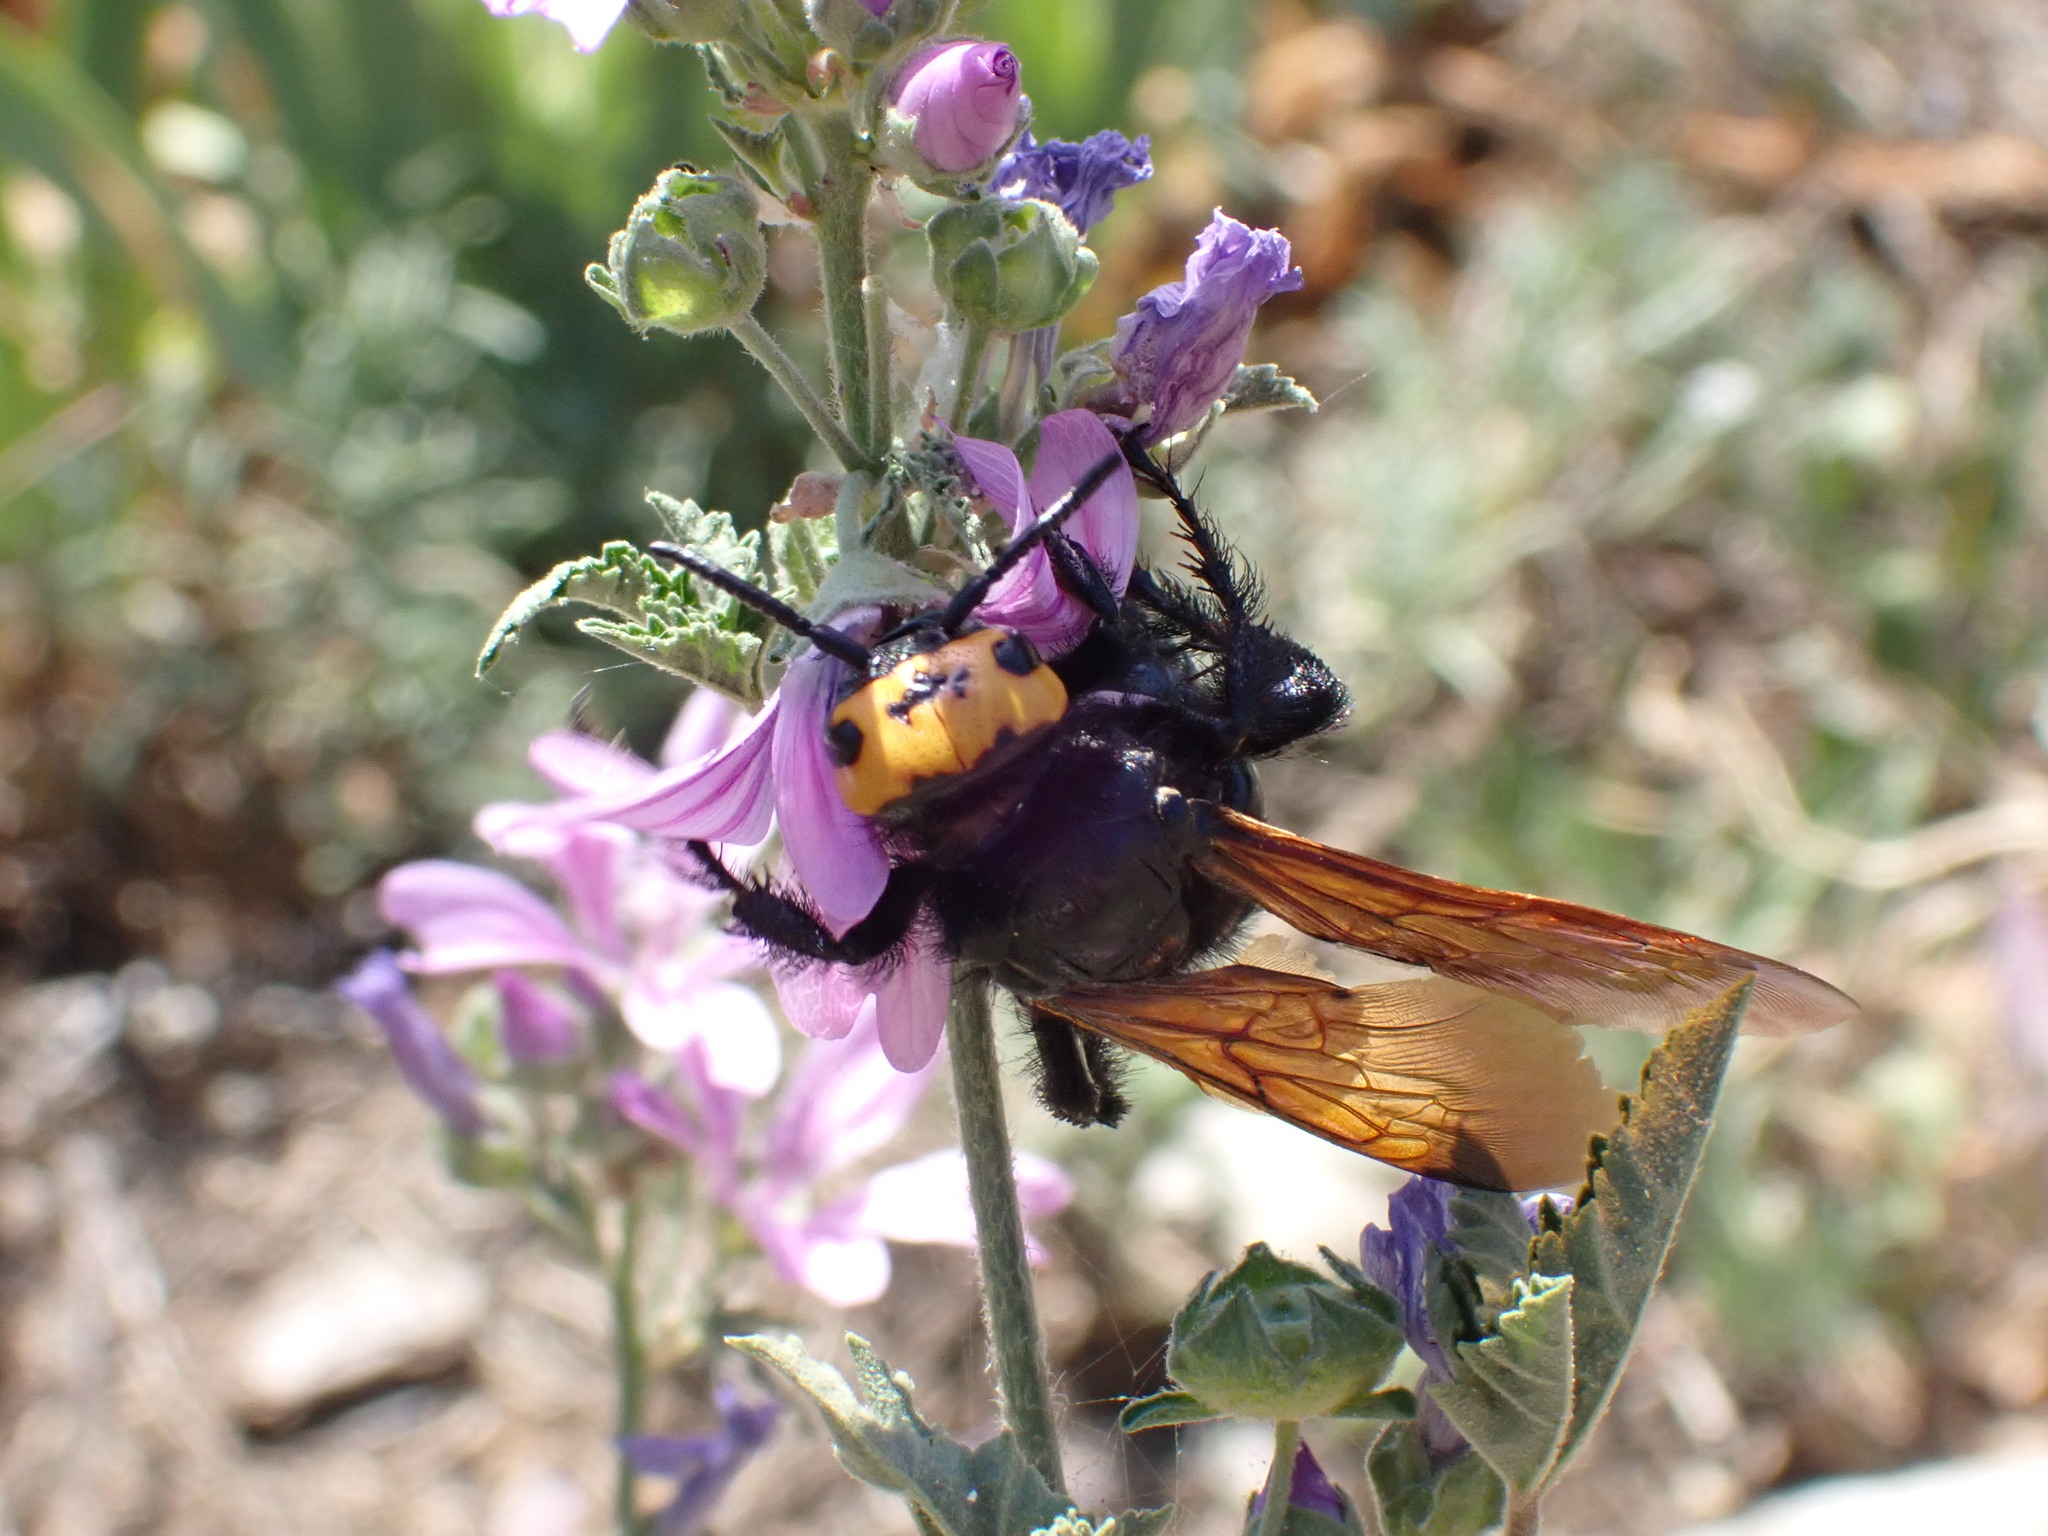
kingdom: Animalia
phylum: Arthropoda
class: Insecta
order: Hymenoptera
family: Scoliidae
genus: Megascolia
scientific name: Megascolia maculata
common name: Mammoth wasp
